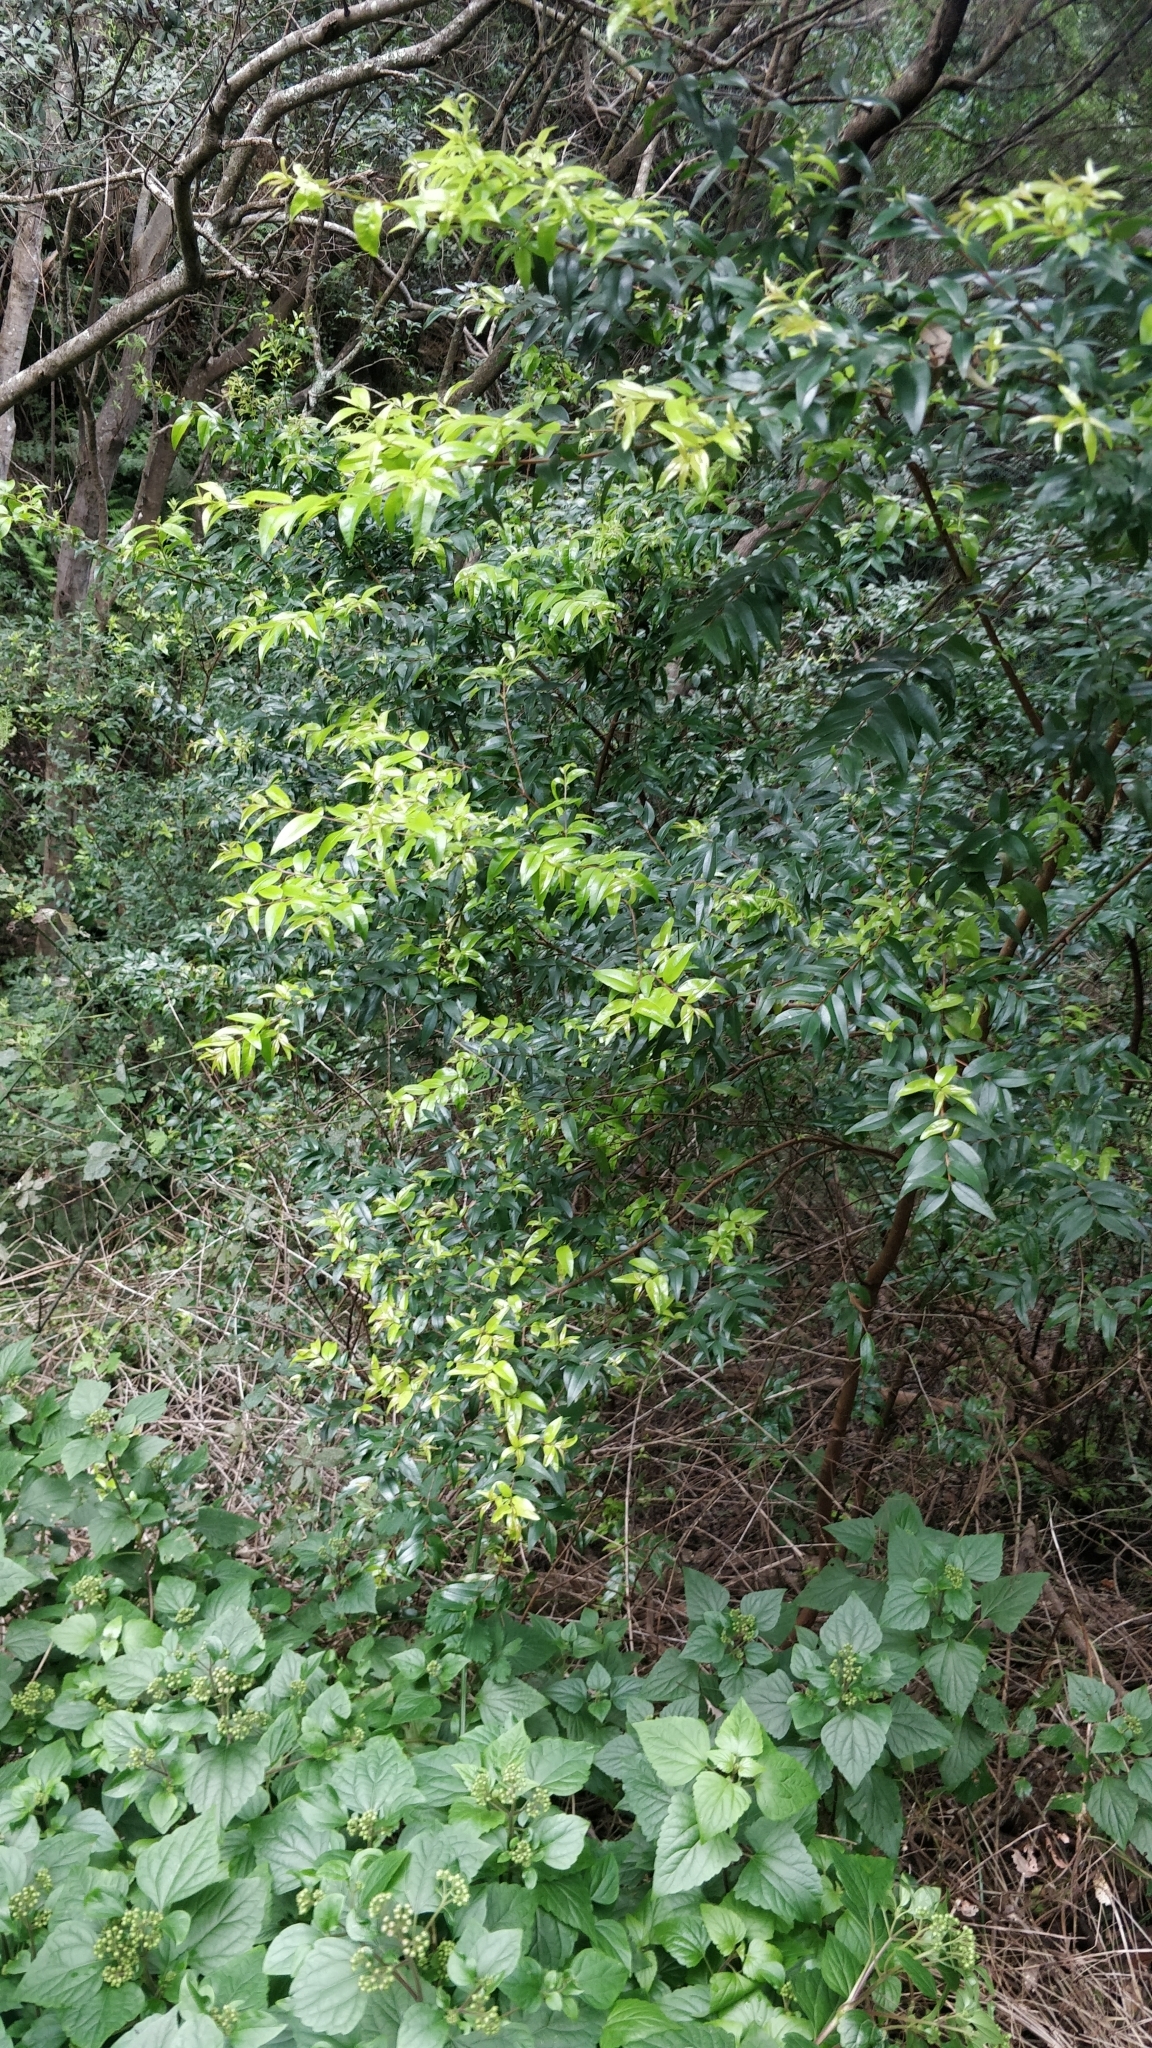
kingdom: Plantae
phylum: Tracheophyta
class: Magnoliopsida
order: Myrtales
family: Myrtaceae
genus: Myrtus
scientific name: Myrtus communis
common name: Myrtle
